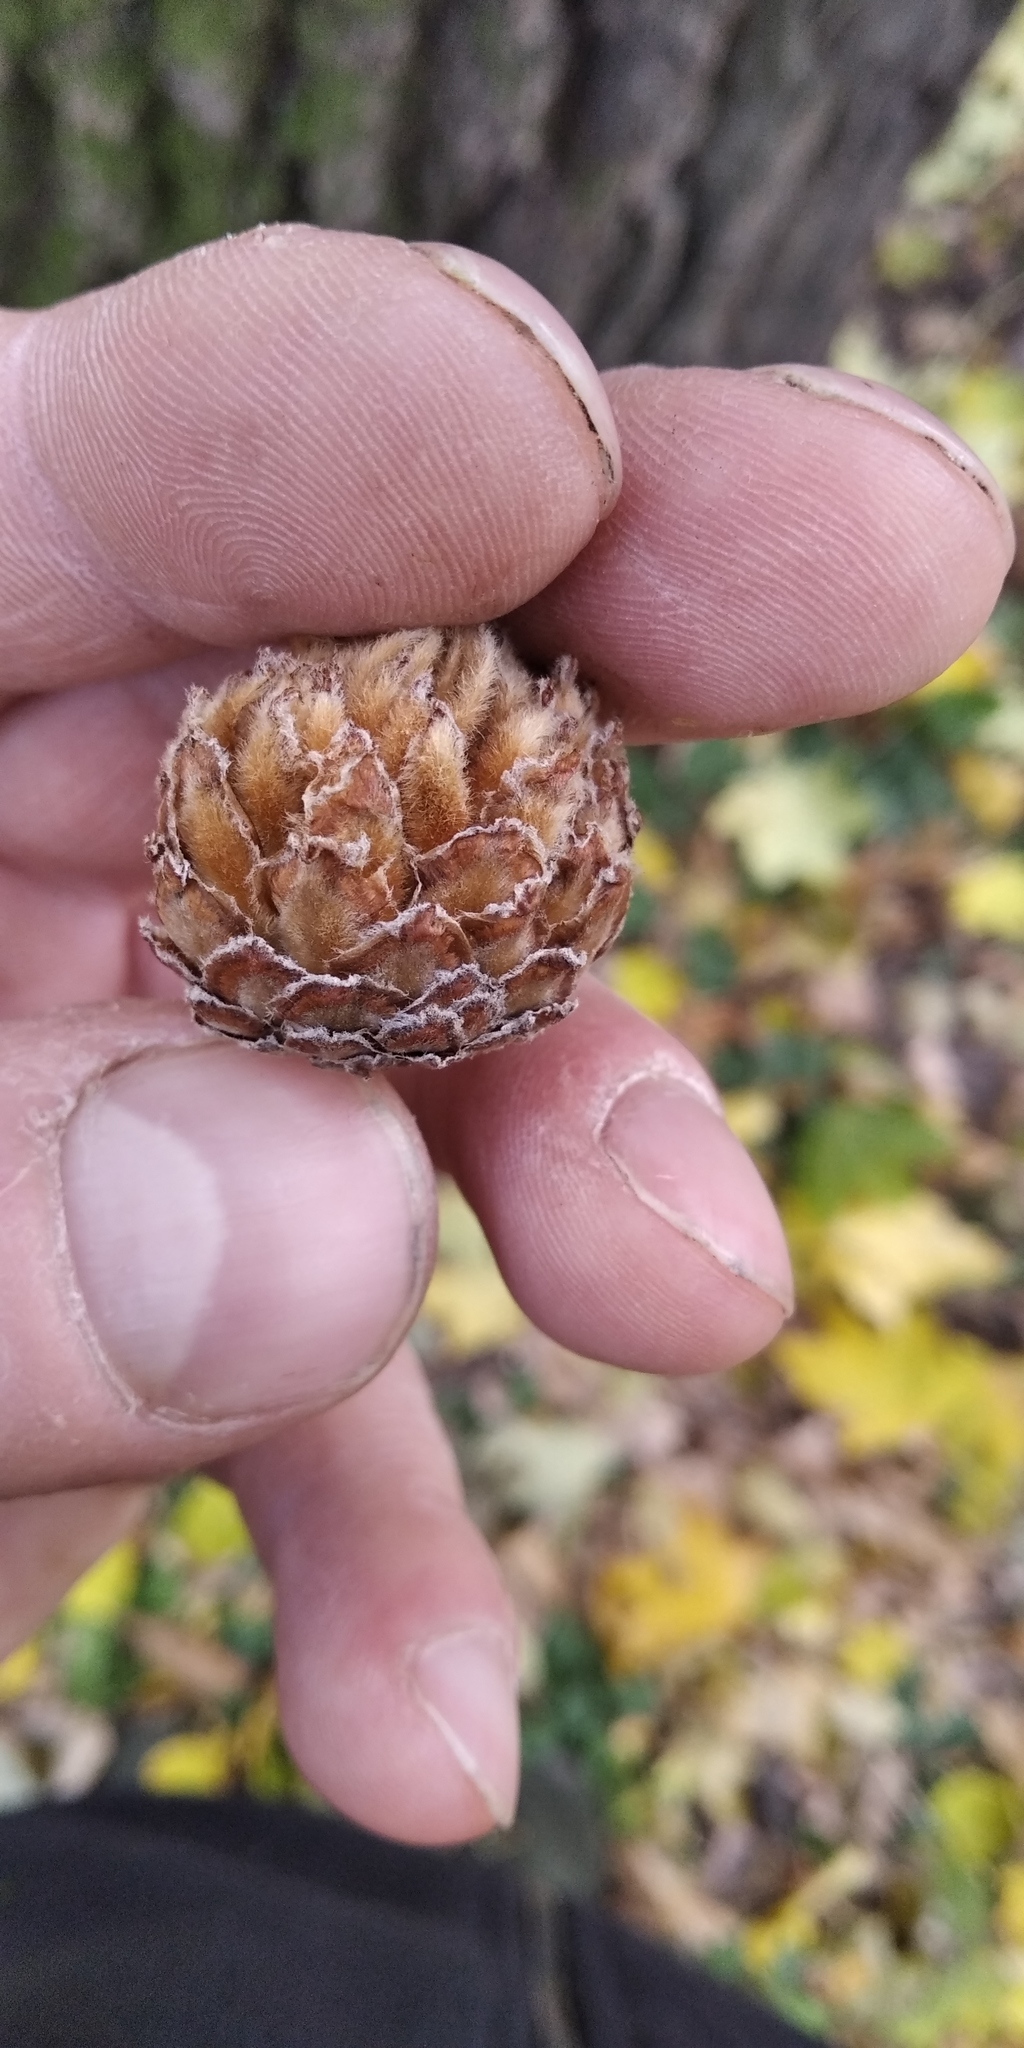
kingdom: Animalia
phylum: Arthropoda
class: Insecta
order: Hymenoptera
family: Cynipidae
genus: Andricus
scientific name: Andricus foecundatrix
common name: Artichoke gall
